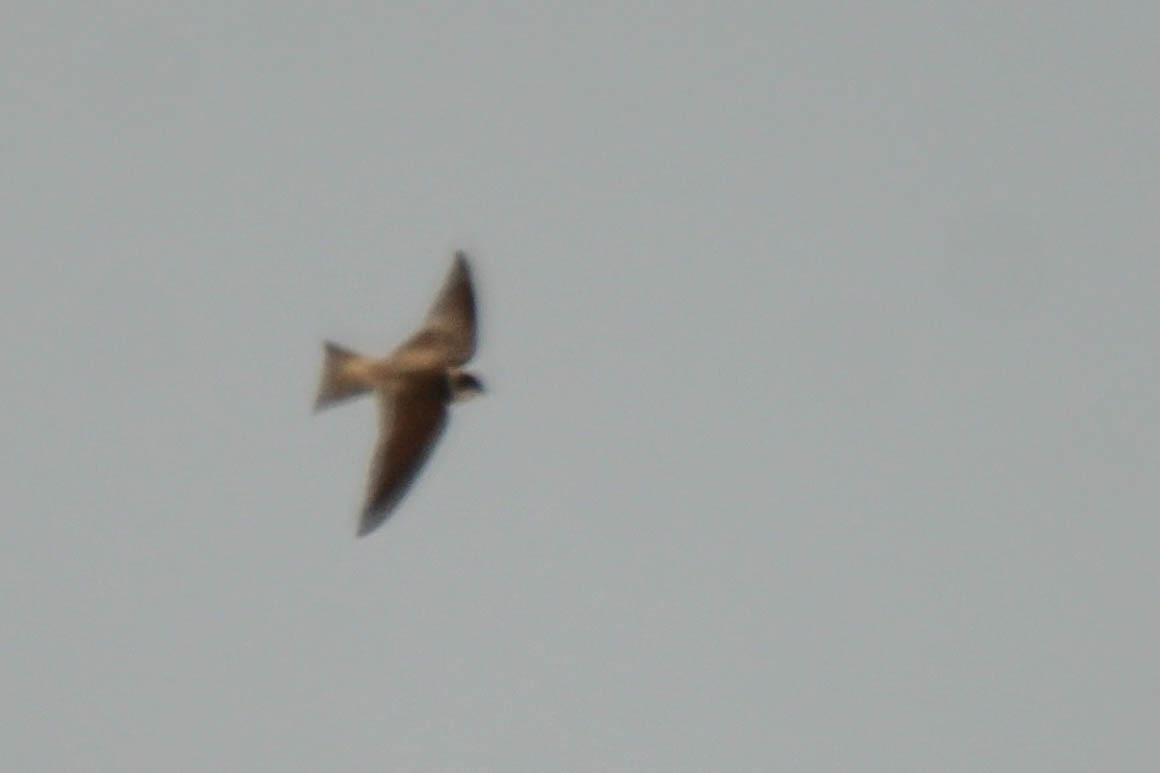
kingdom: Animalia
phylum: Chordata
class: Aves
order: Passeriformes
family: Hirundinidae
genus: Riparia
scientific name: Riparia riparia
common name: Sand martin
